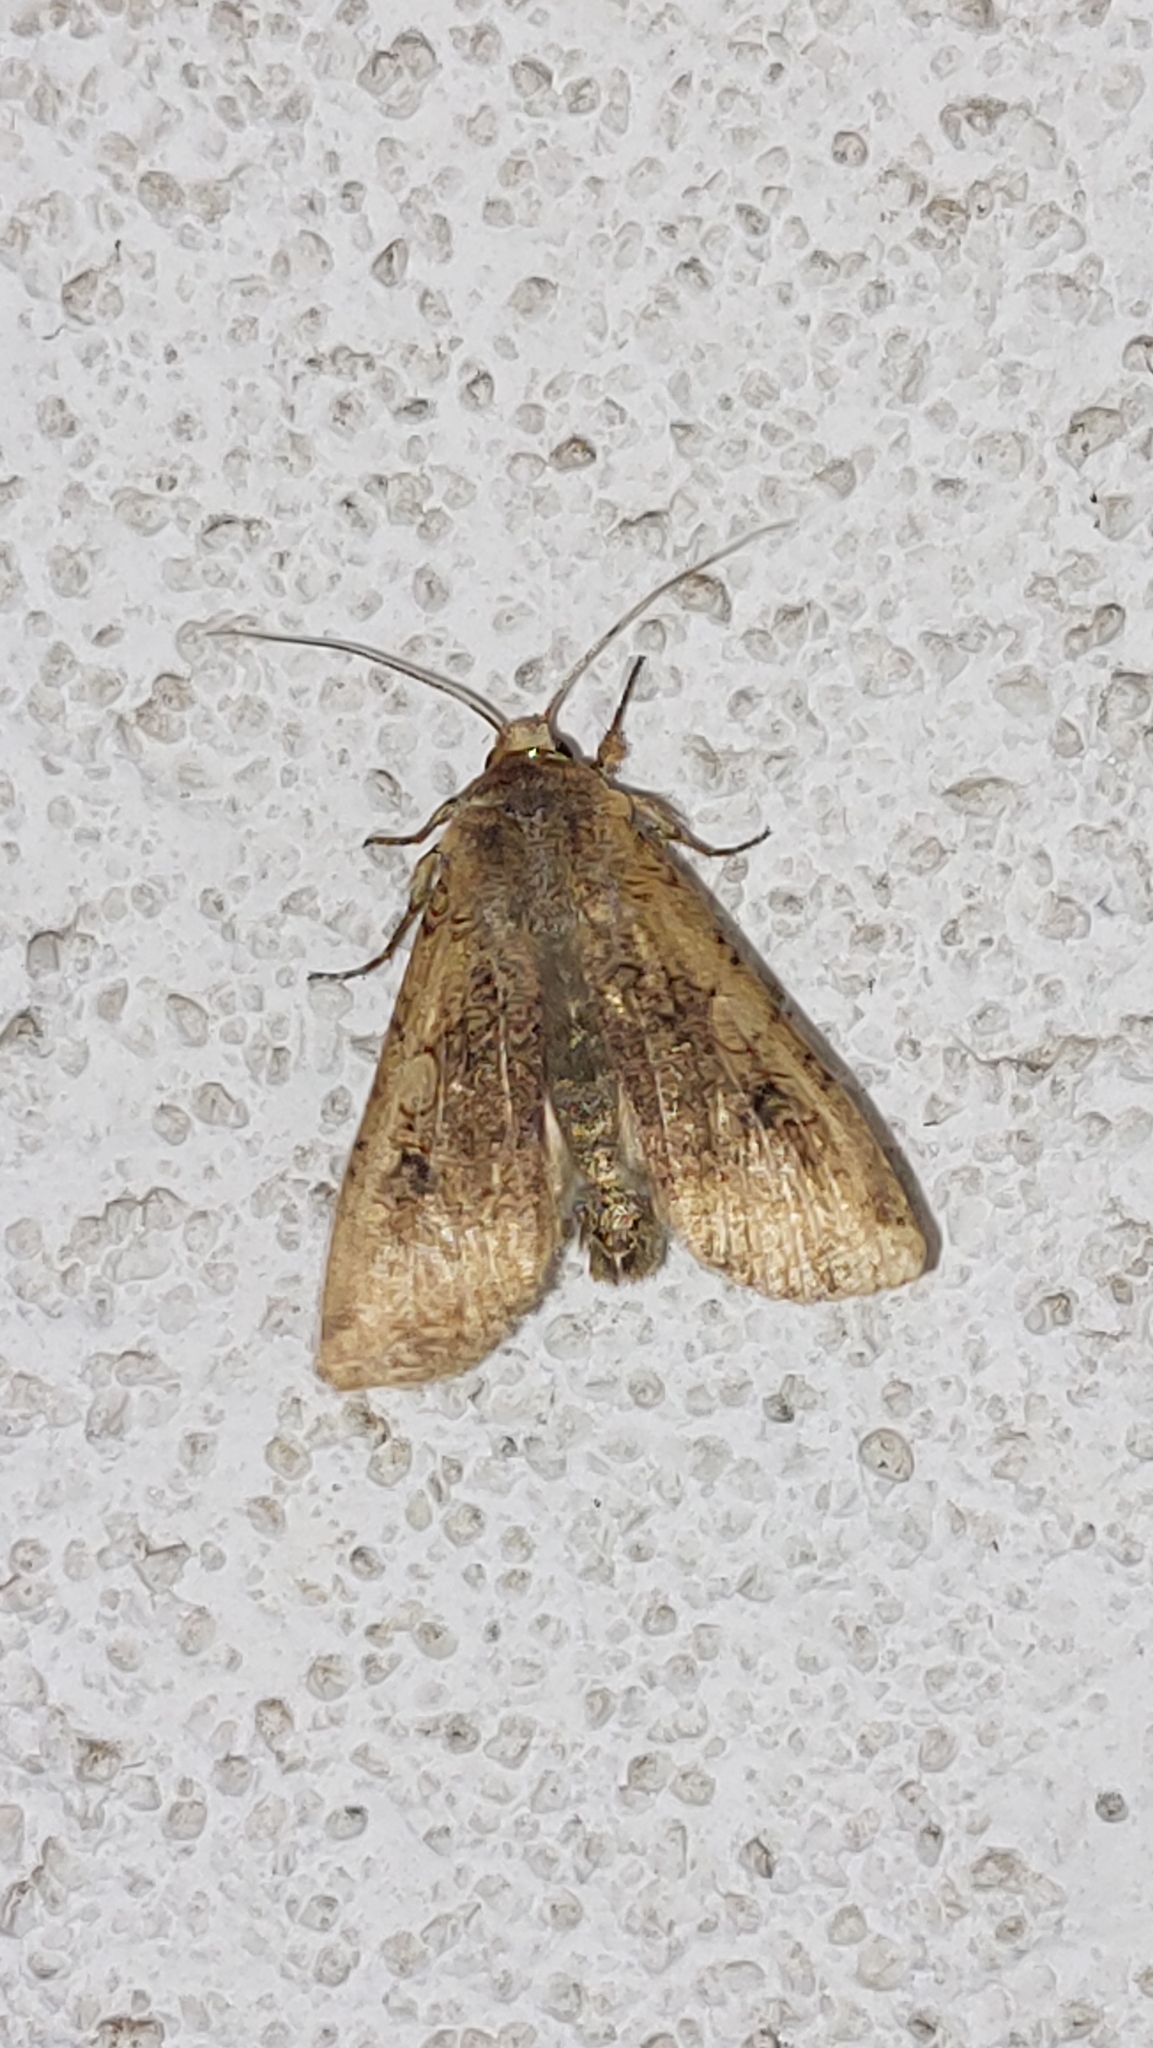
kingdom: Animalia
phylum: Arthropoda
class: Insecta
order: Lepidoptera
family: Noctuidae
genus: Peridroma
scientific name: Peridroma saucia
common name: Pearly underwing
